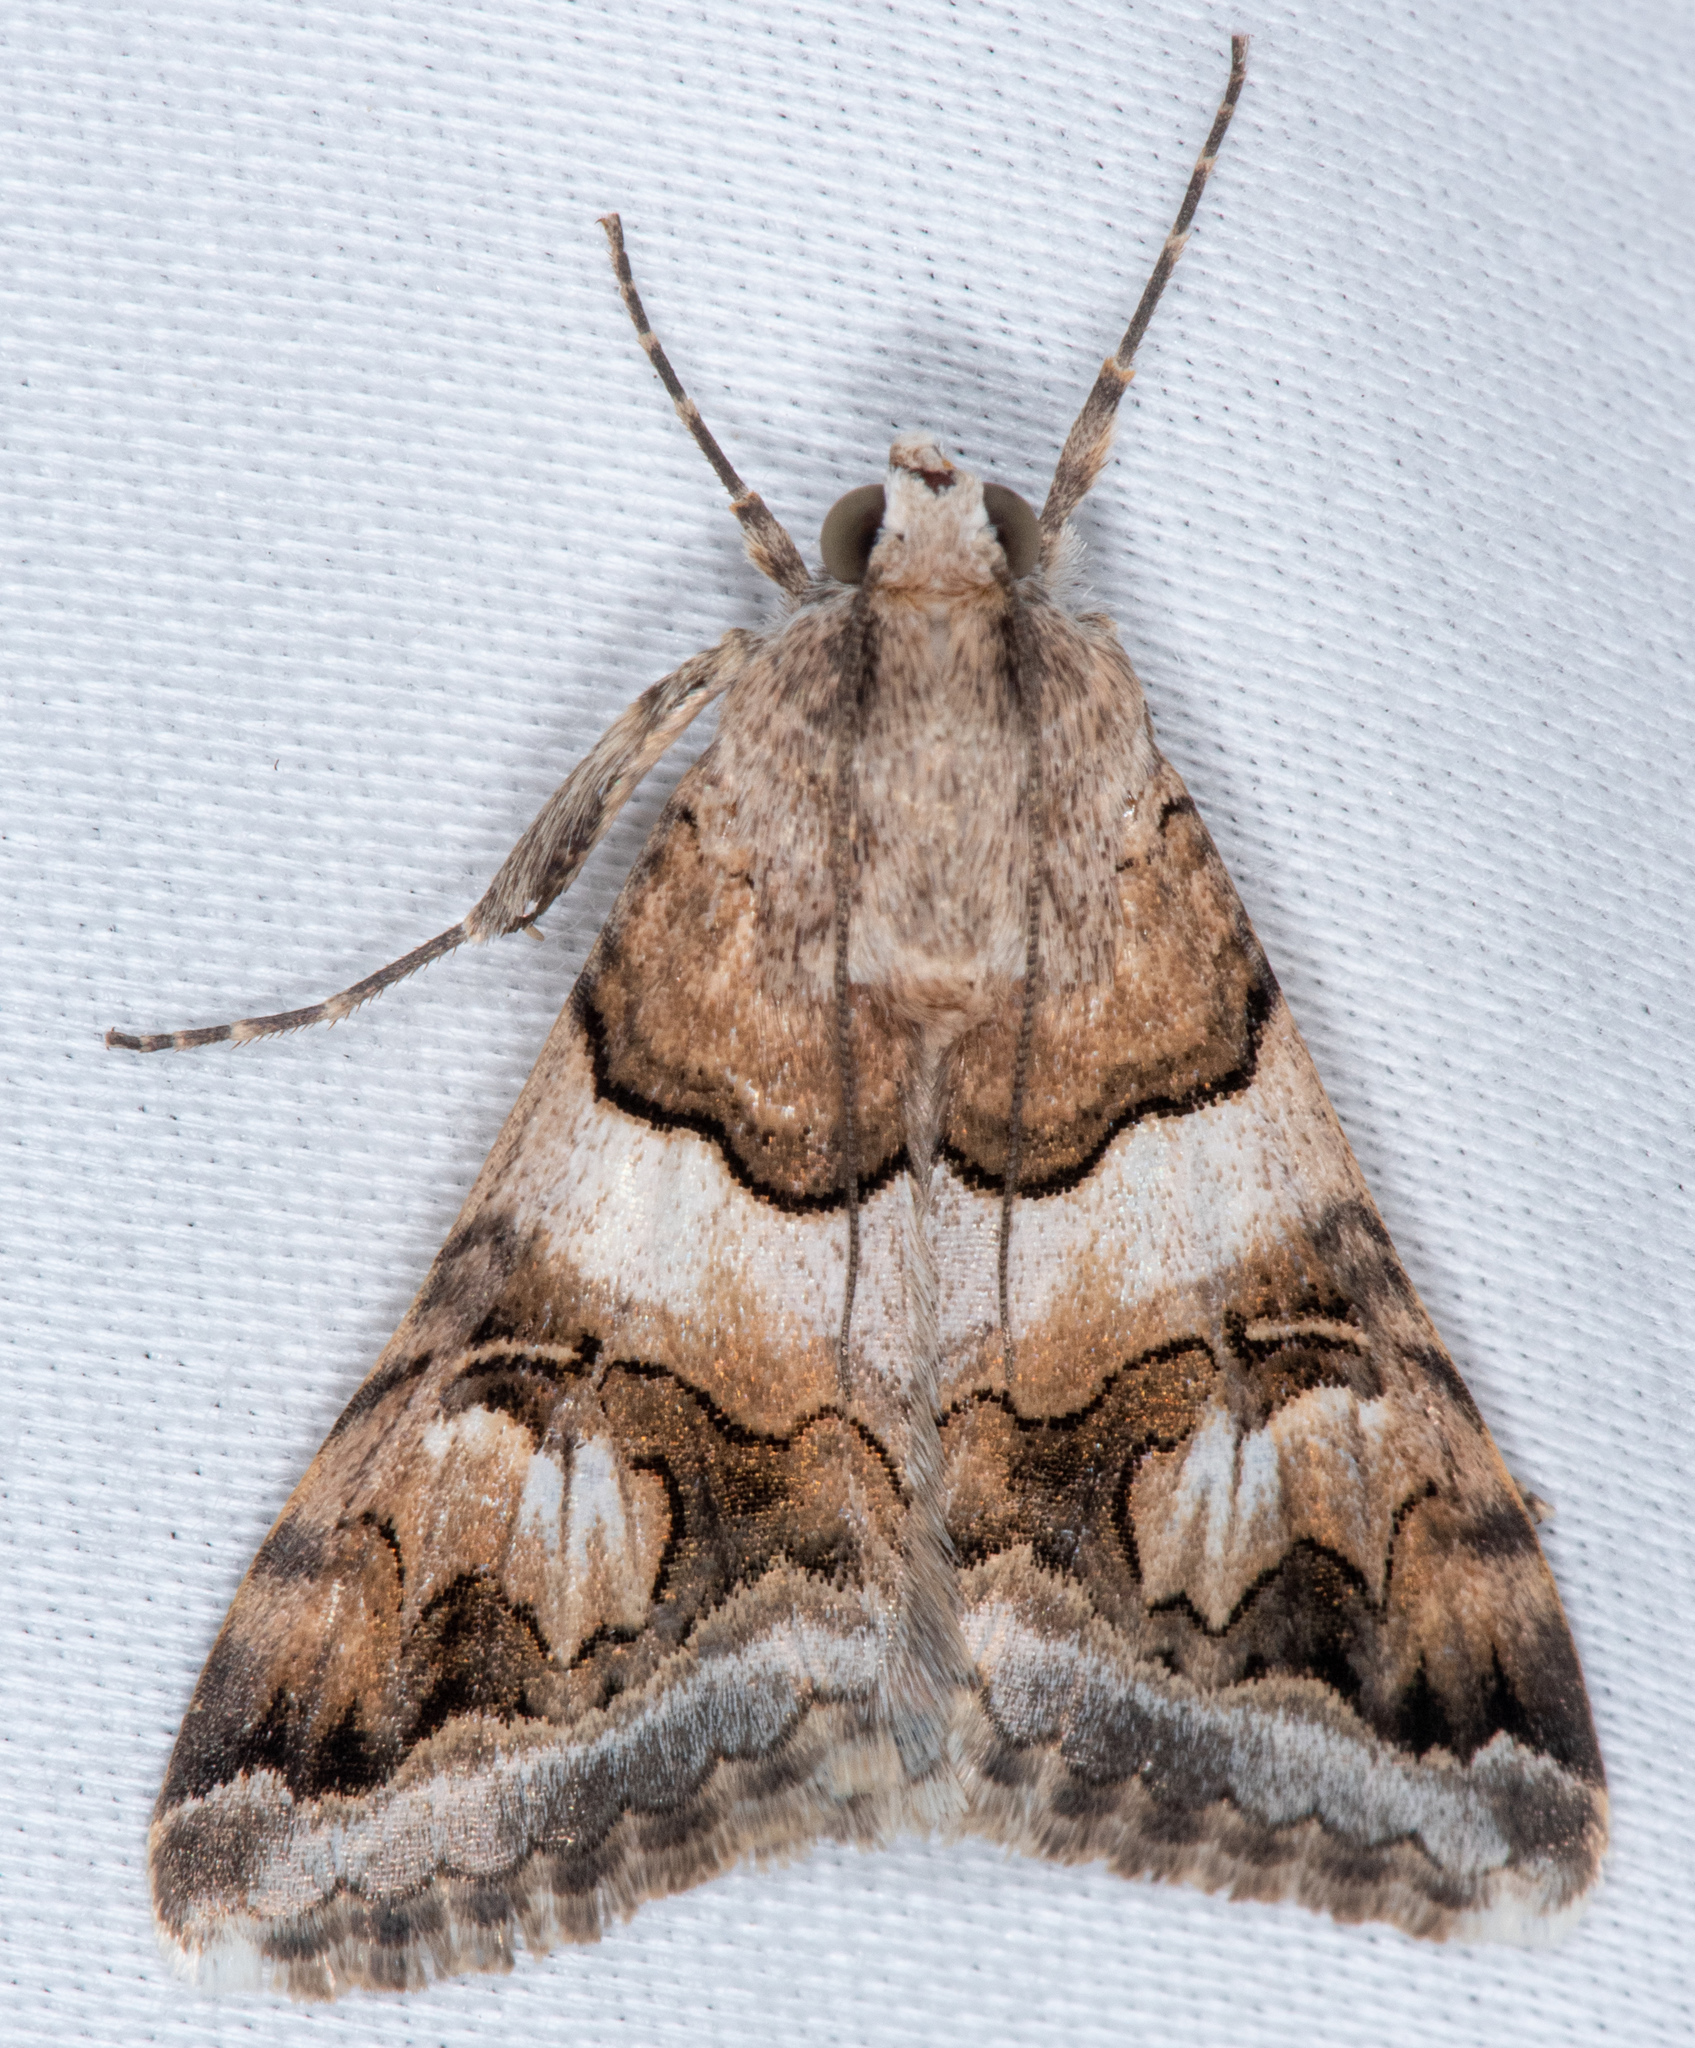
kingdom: Animalia
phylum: Arthropoda
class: Insecta
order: Lepidoptera
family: Erebidae
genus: Drasteria
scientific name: Drasteria howlandii
